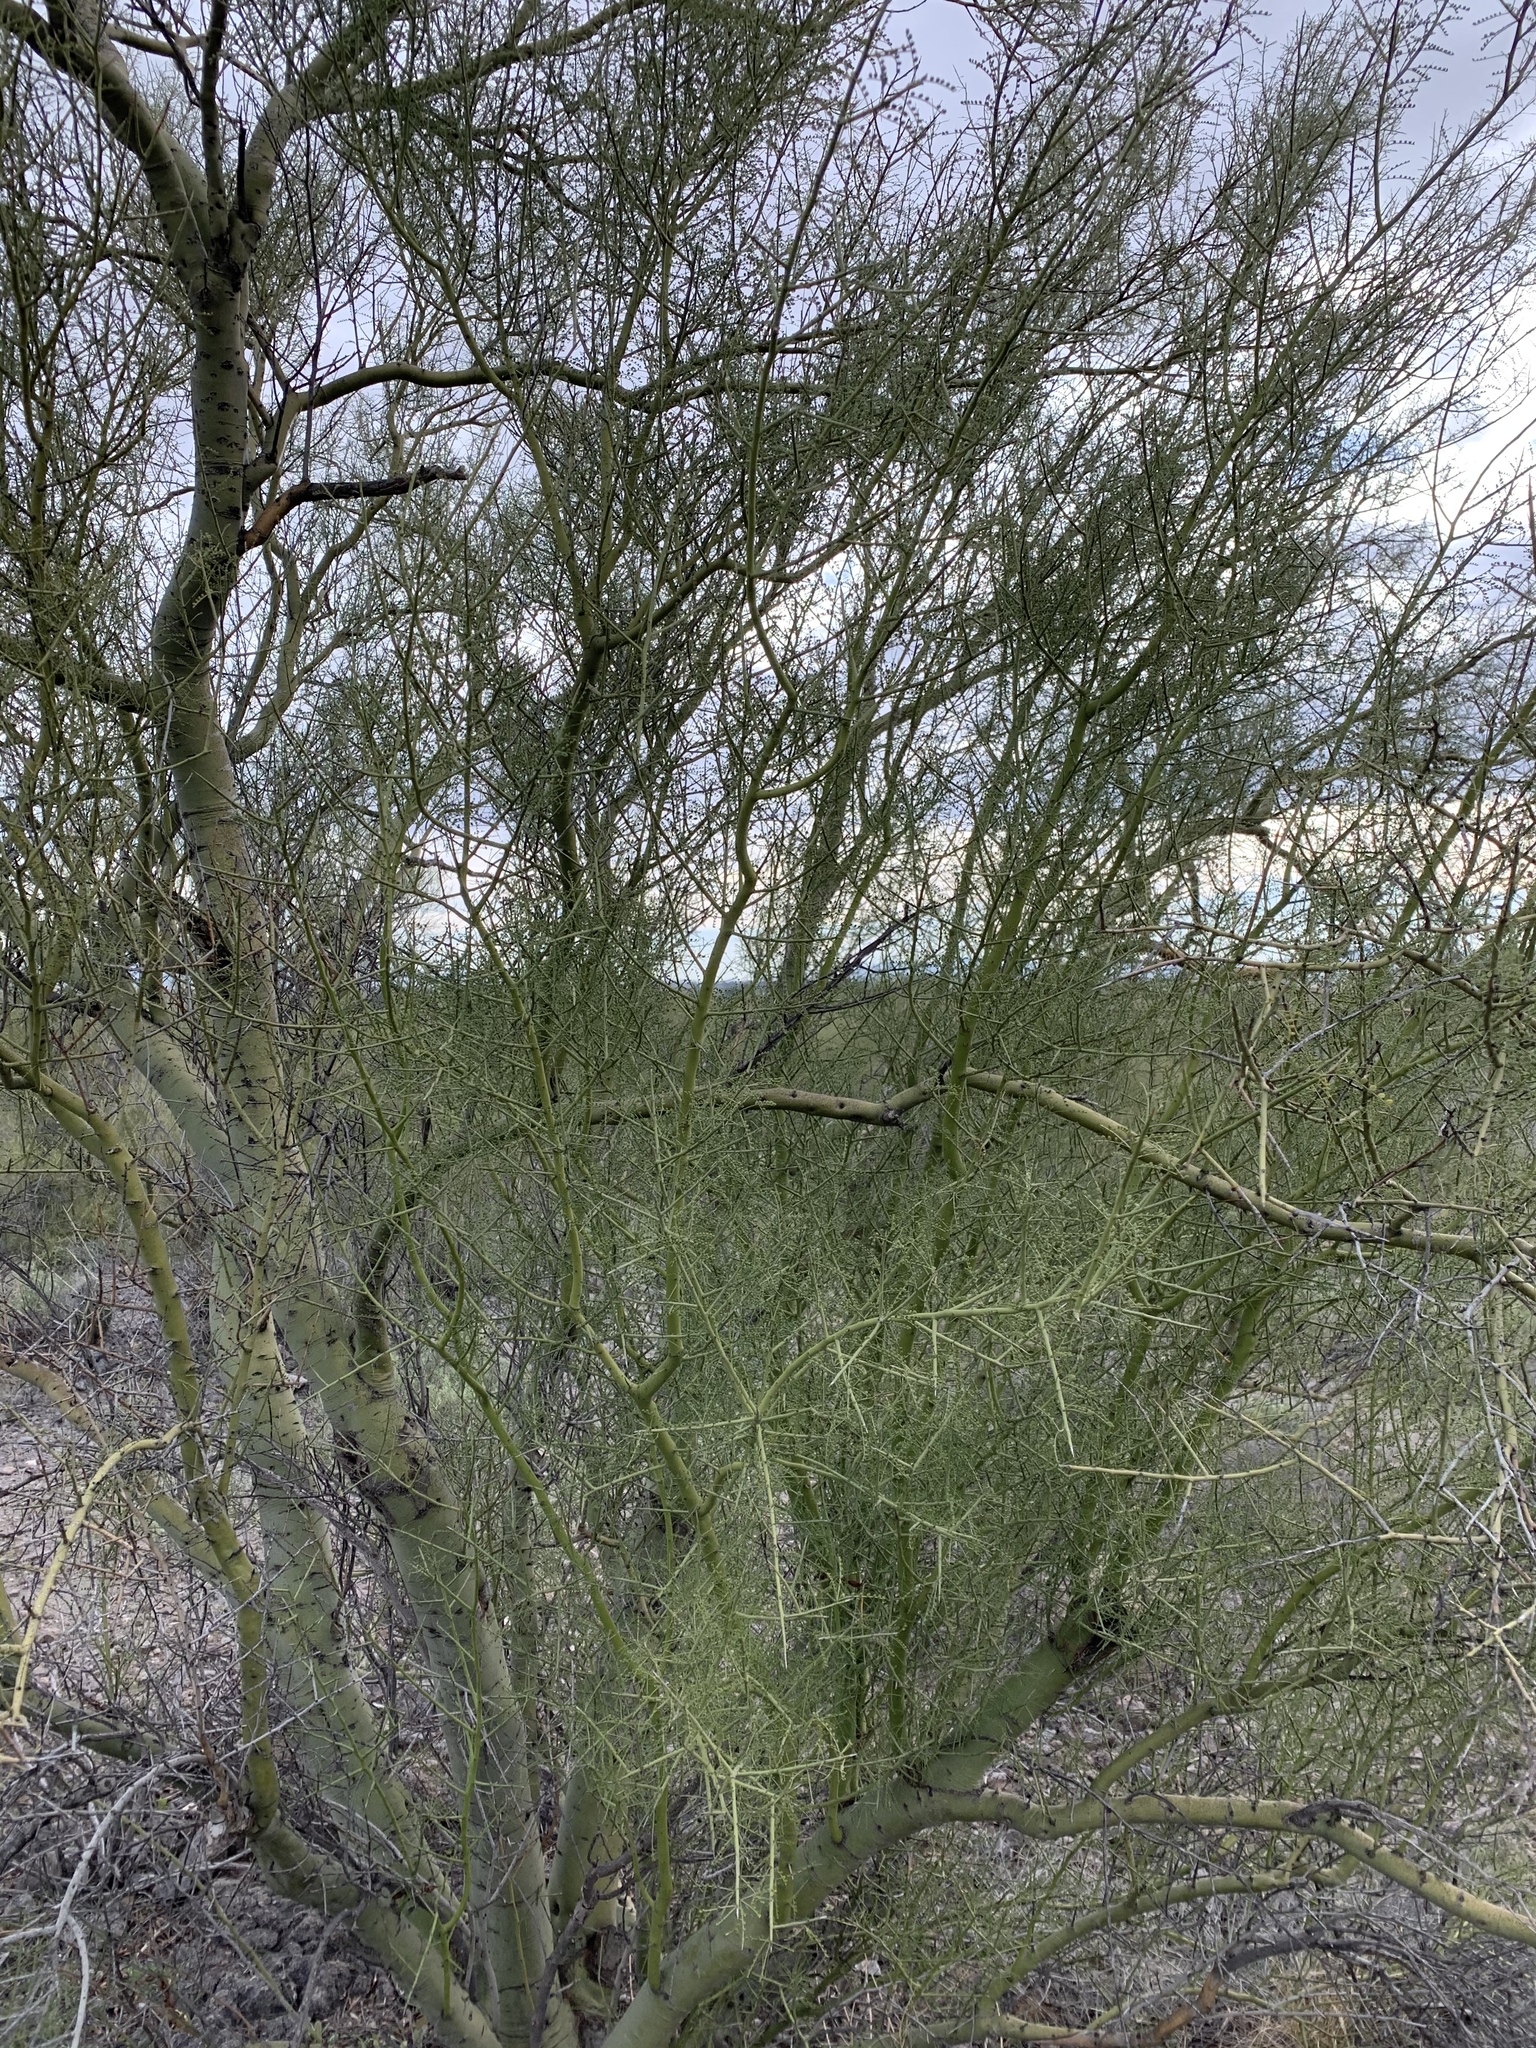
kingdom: Plantae
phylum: Tracheophyta
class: Magnoliopsida
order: Fabales
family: Fabaceae
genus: Parkinsonia
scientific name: Parkinsonia microphylla
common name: Yellow paloverde
